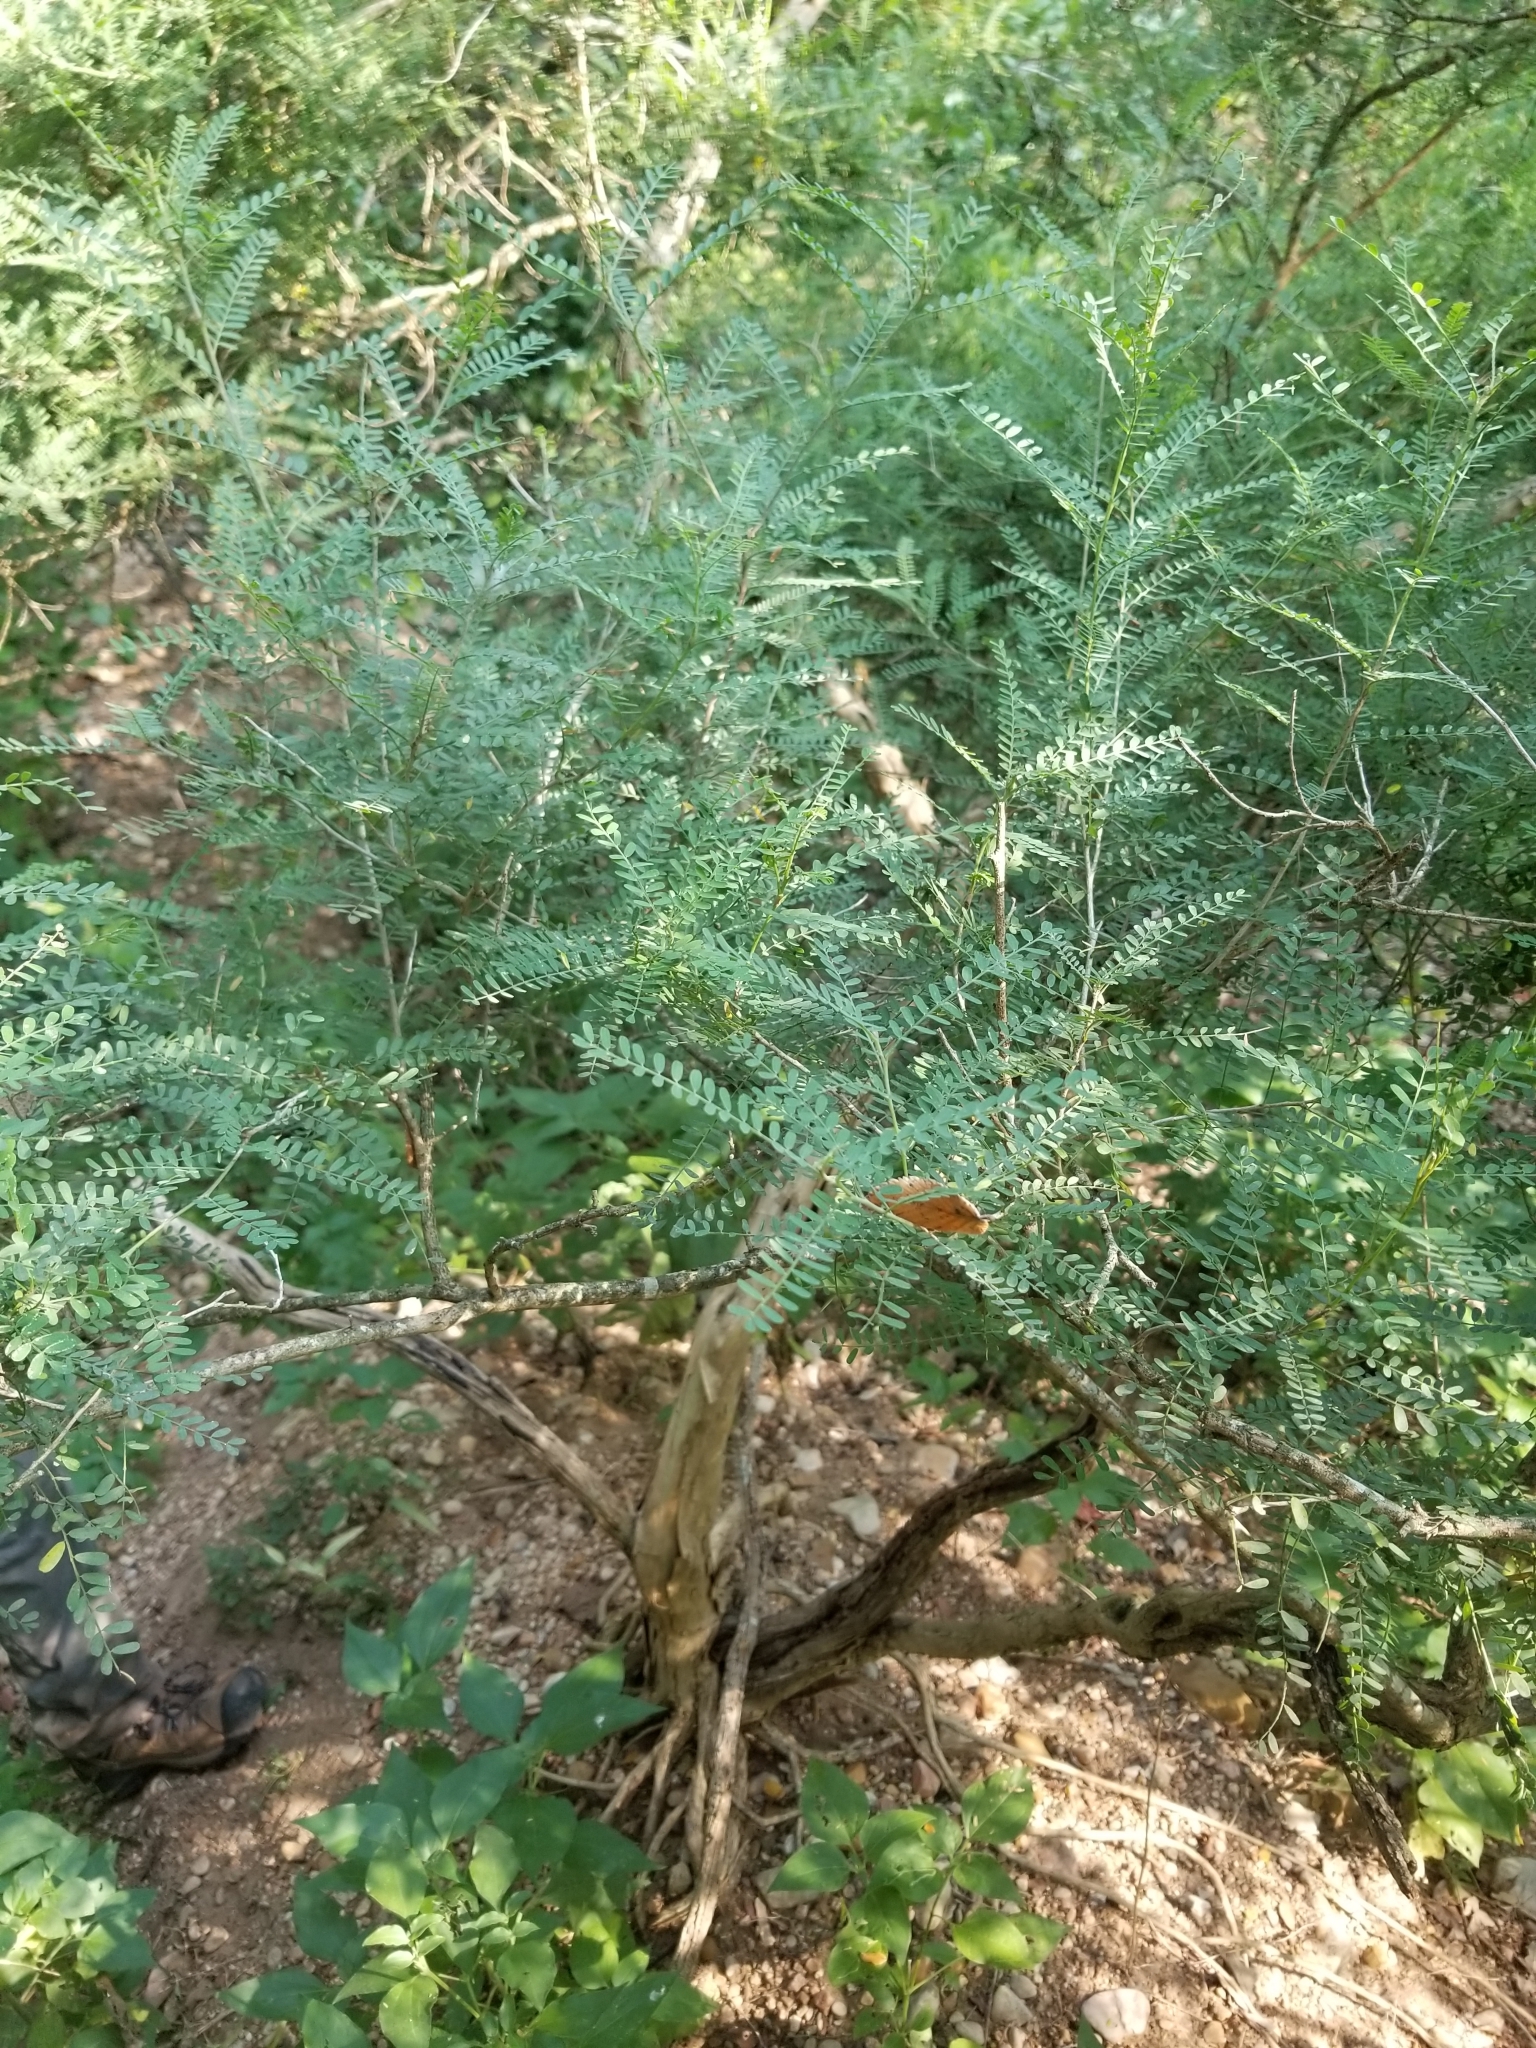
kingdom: Plantae
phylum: Tracheophyta
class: Magnoliopsida
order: Fabales
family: Fabaceae
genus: Eysenhardtia
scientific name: Eysenhardtia texana
